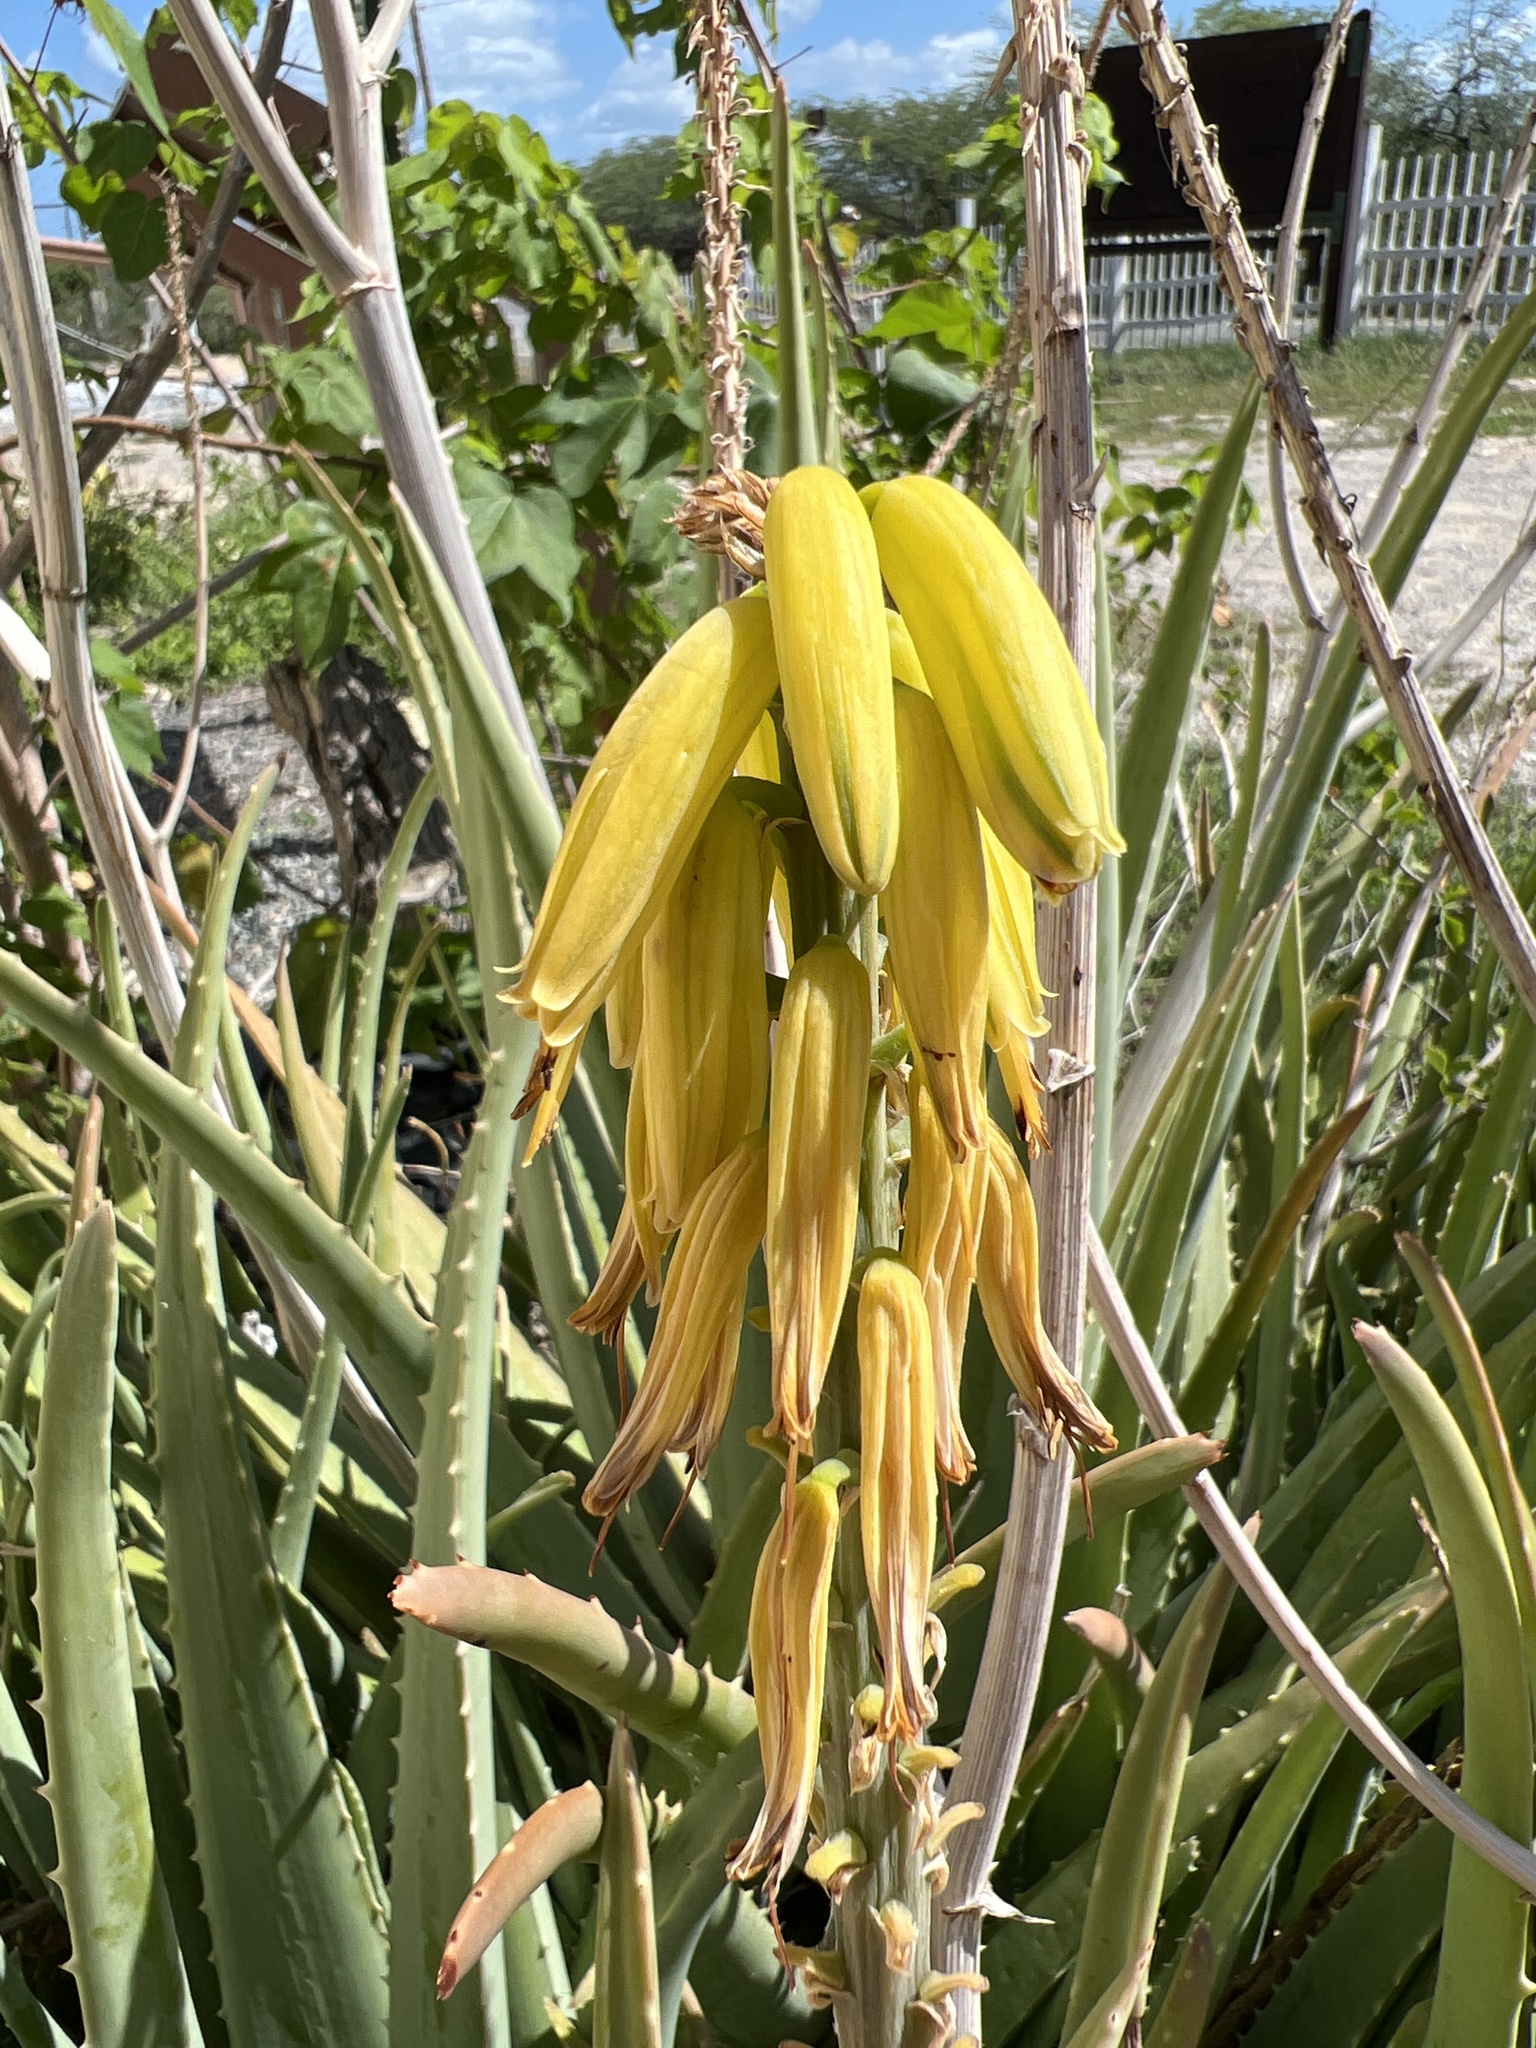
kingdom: Plantae
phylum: Tracheophyta
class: Liliopsida
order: Asparagales
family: Asphodelaceae
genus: Aloe
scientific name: Aloe vera
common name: Barbados aloe
